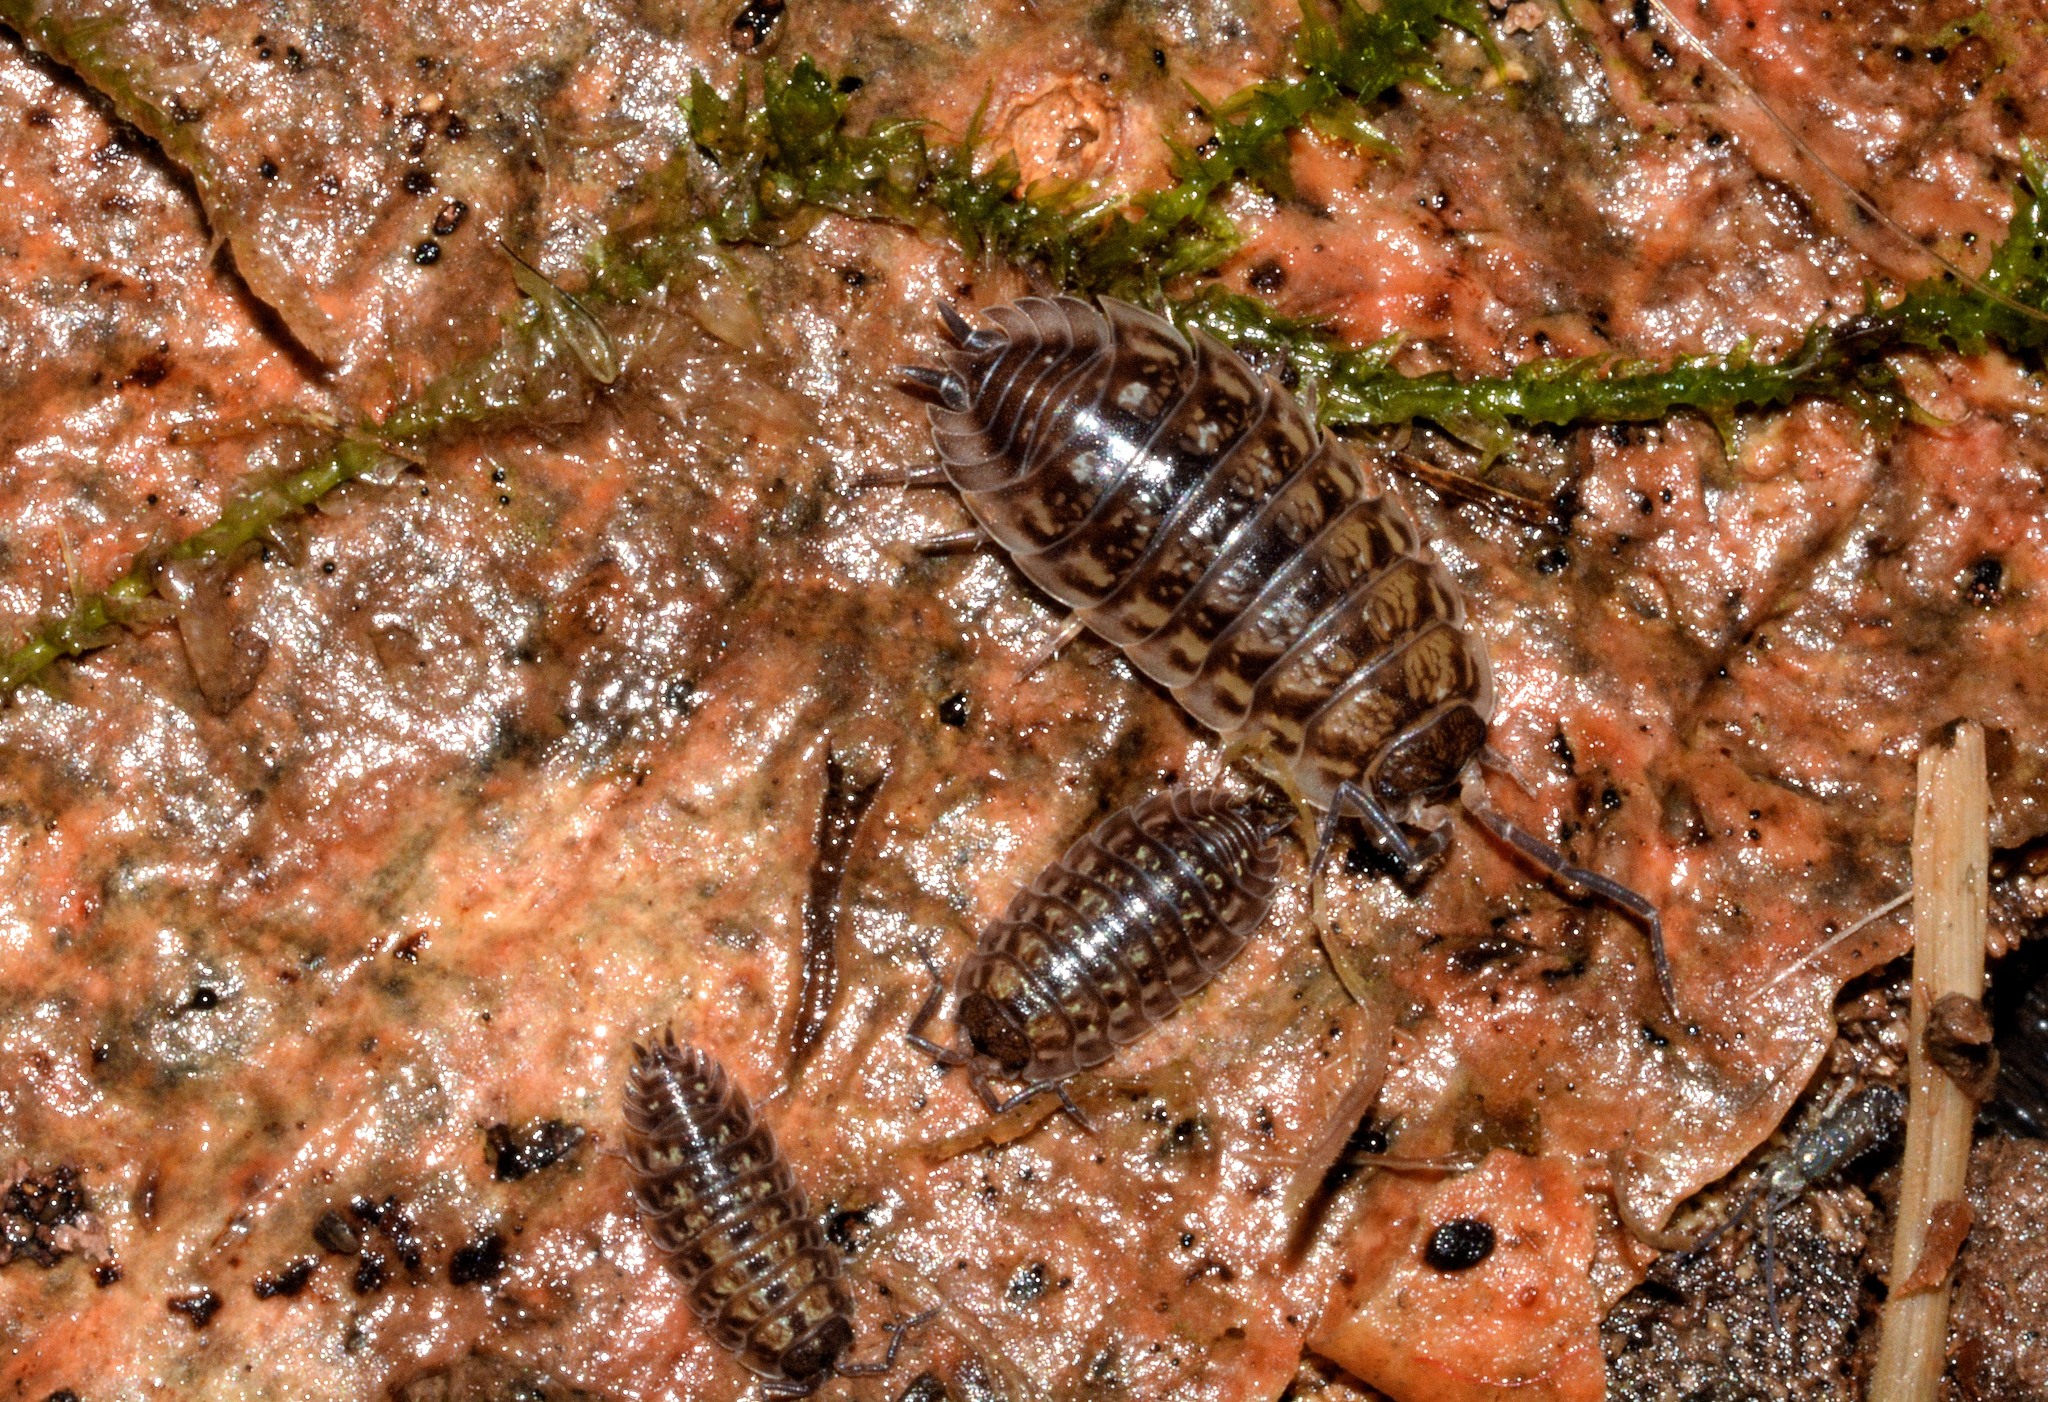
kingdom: Animalia
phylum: Arthropoda
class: Malacostraca
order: Isopoda
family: Oniscidae
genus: Oniscus
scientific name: Oniscus asellus
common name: Common shiny woodlouse
